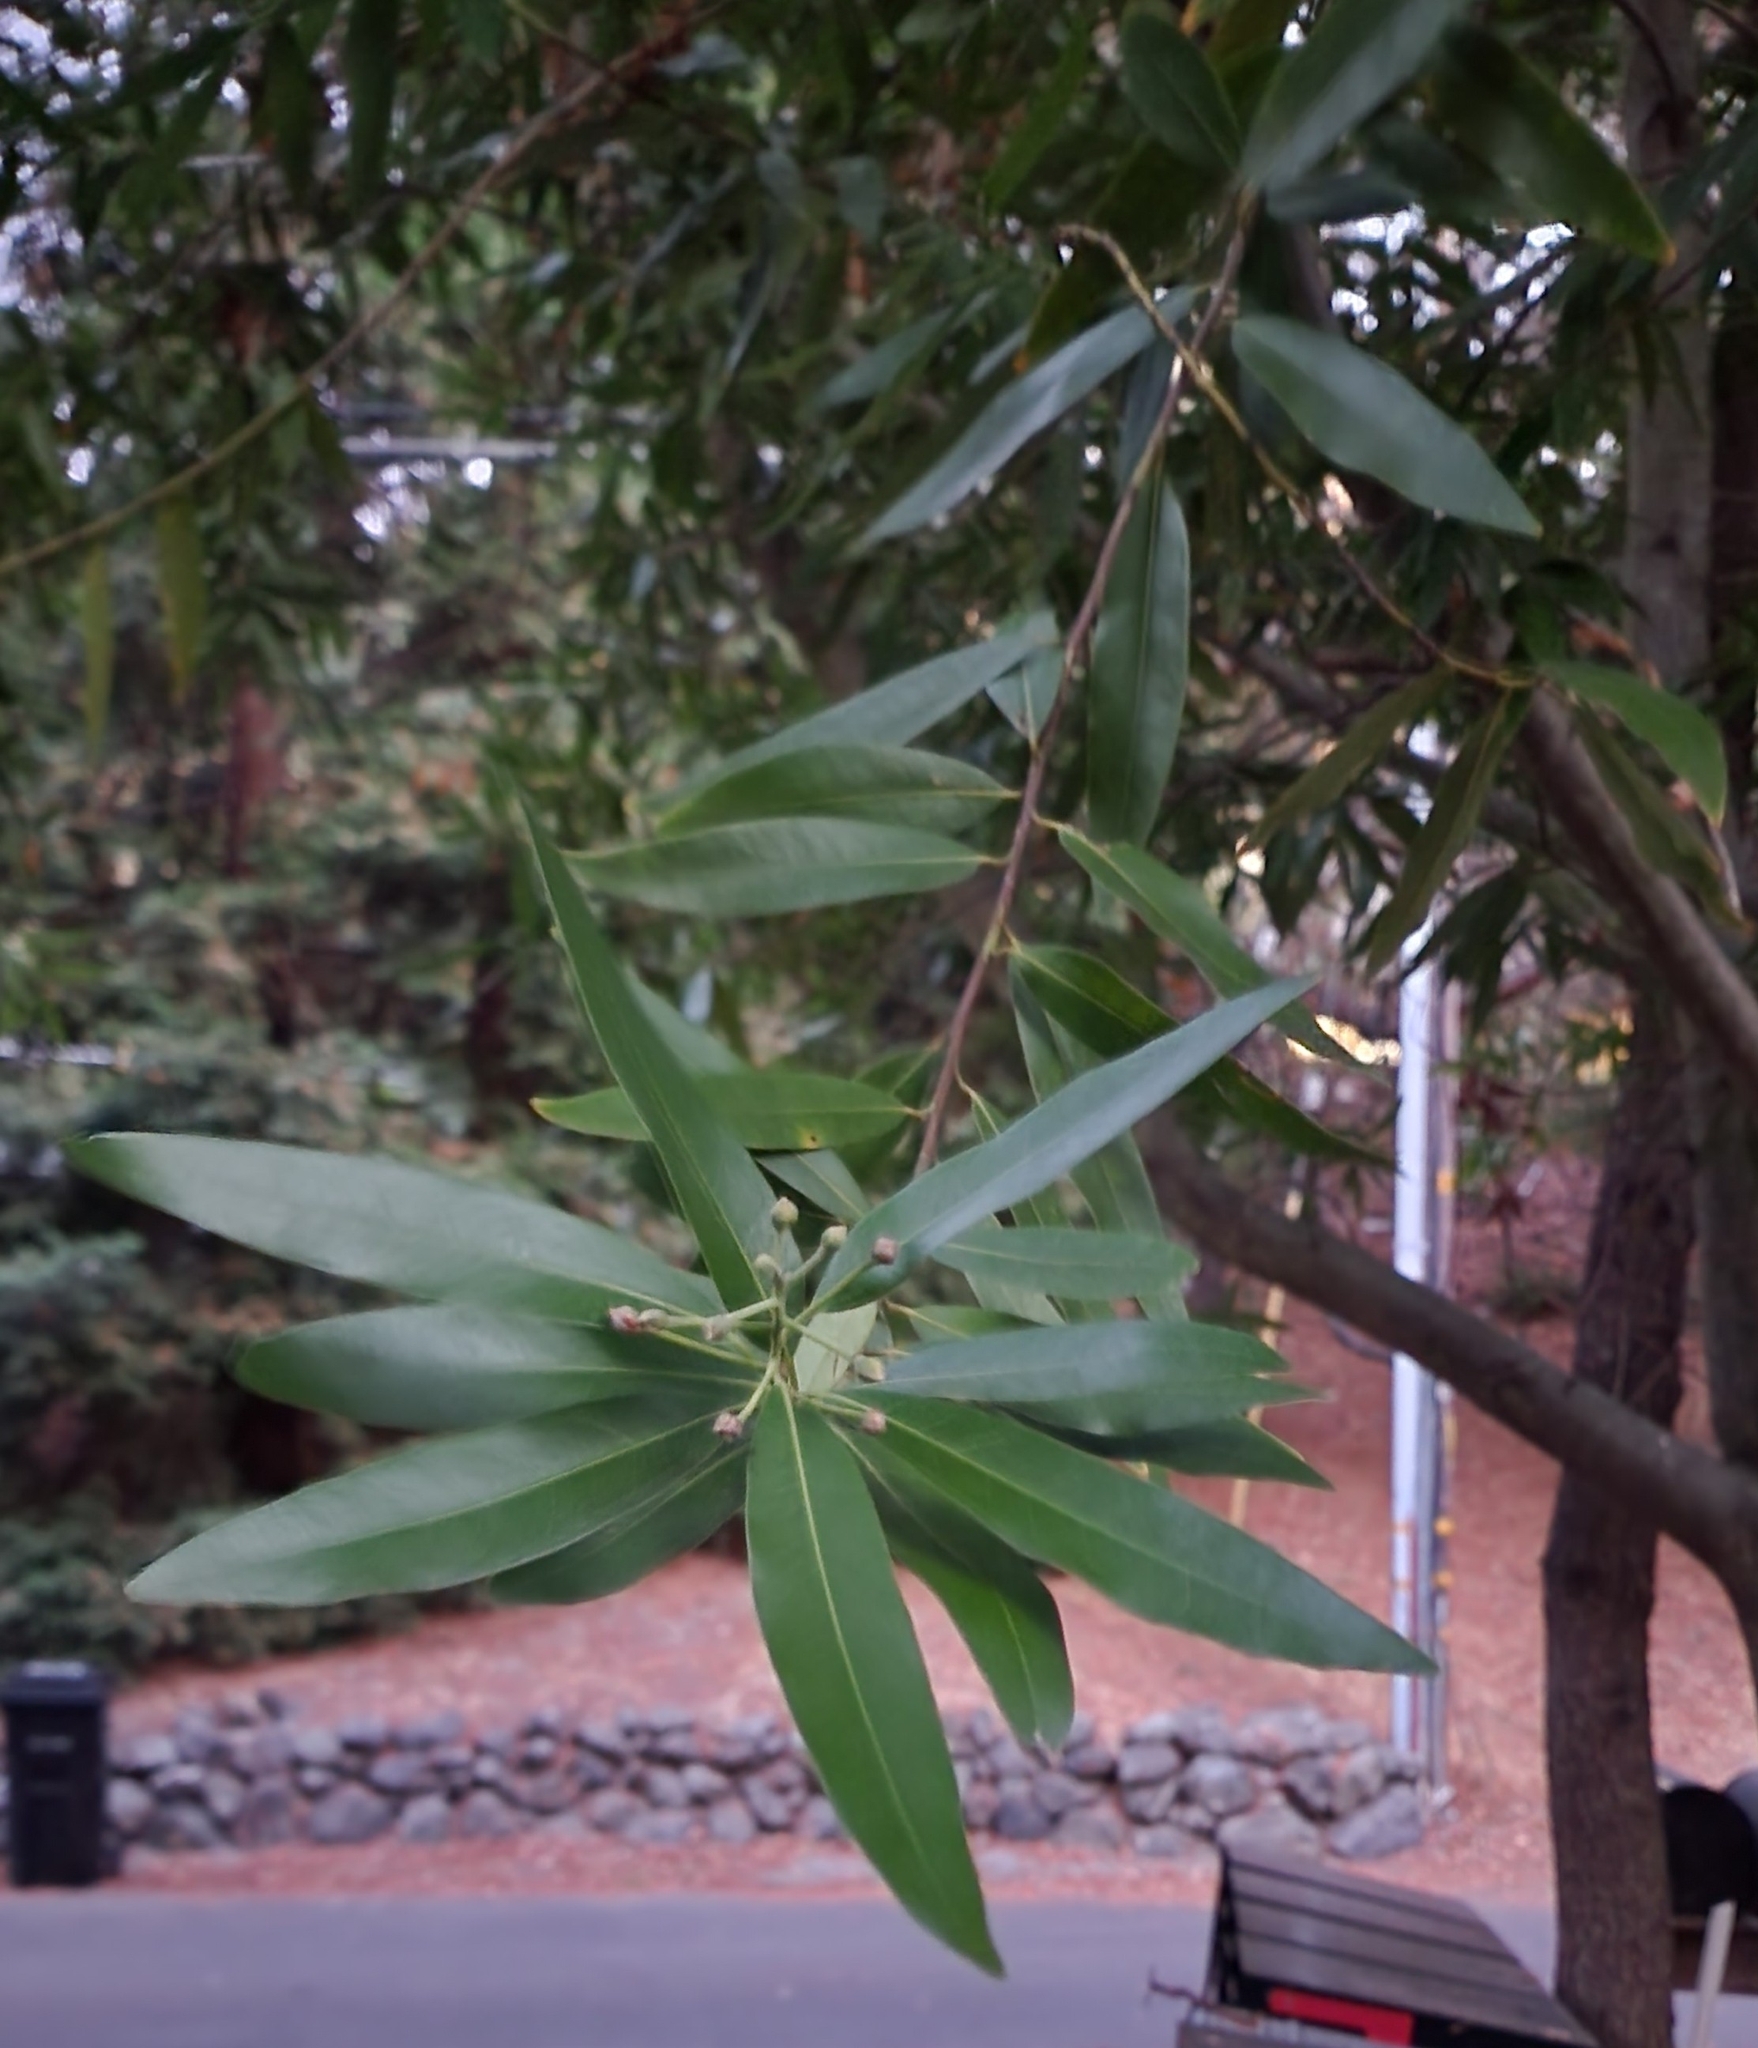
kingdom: Plantae
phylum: Tracheophyta
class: Magnoliopsida
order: Laurales
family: Lauraceae
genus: Umbellularia
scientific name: Umbellularia californica
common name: California bay
